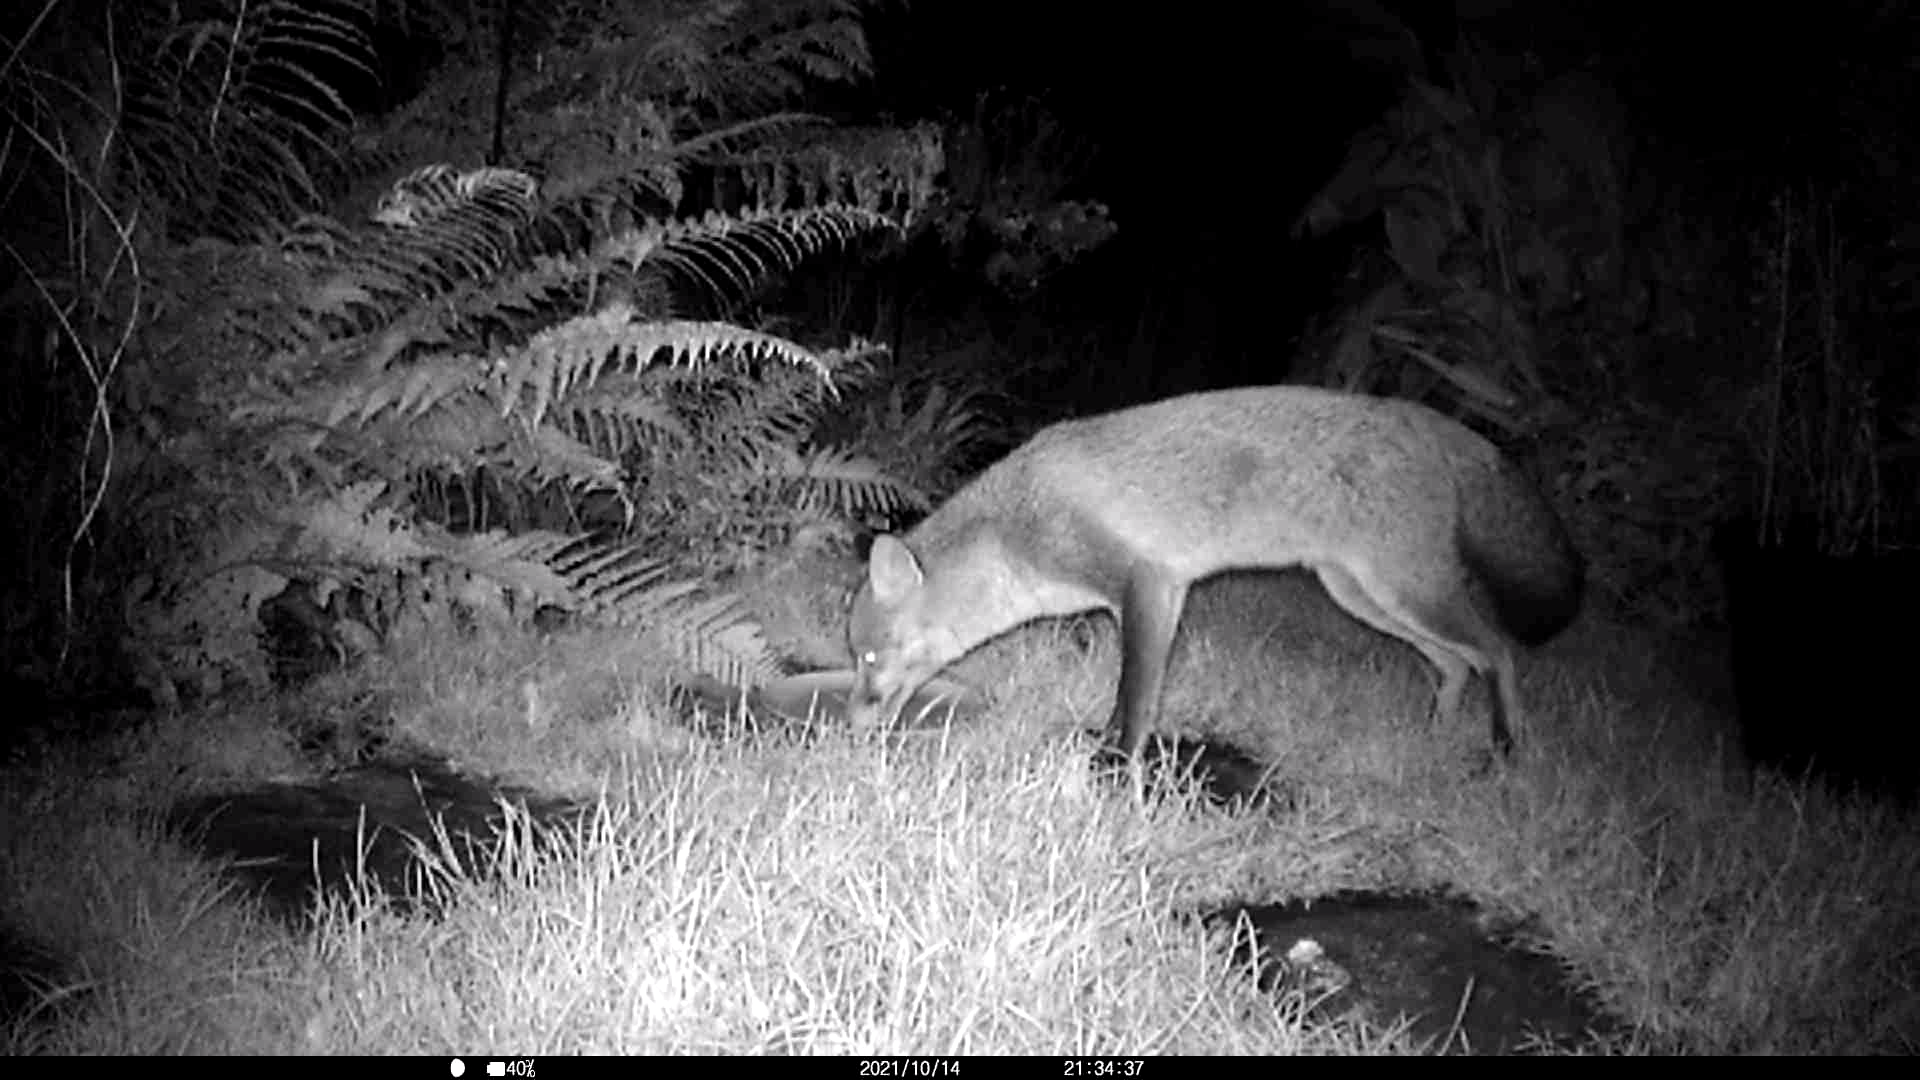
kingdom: Animalia
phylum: Chordata
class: Mammalia
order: Carnivora
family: Canidae
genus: Vulpes
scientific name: Vulpes vulpes
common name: Red fox
